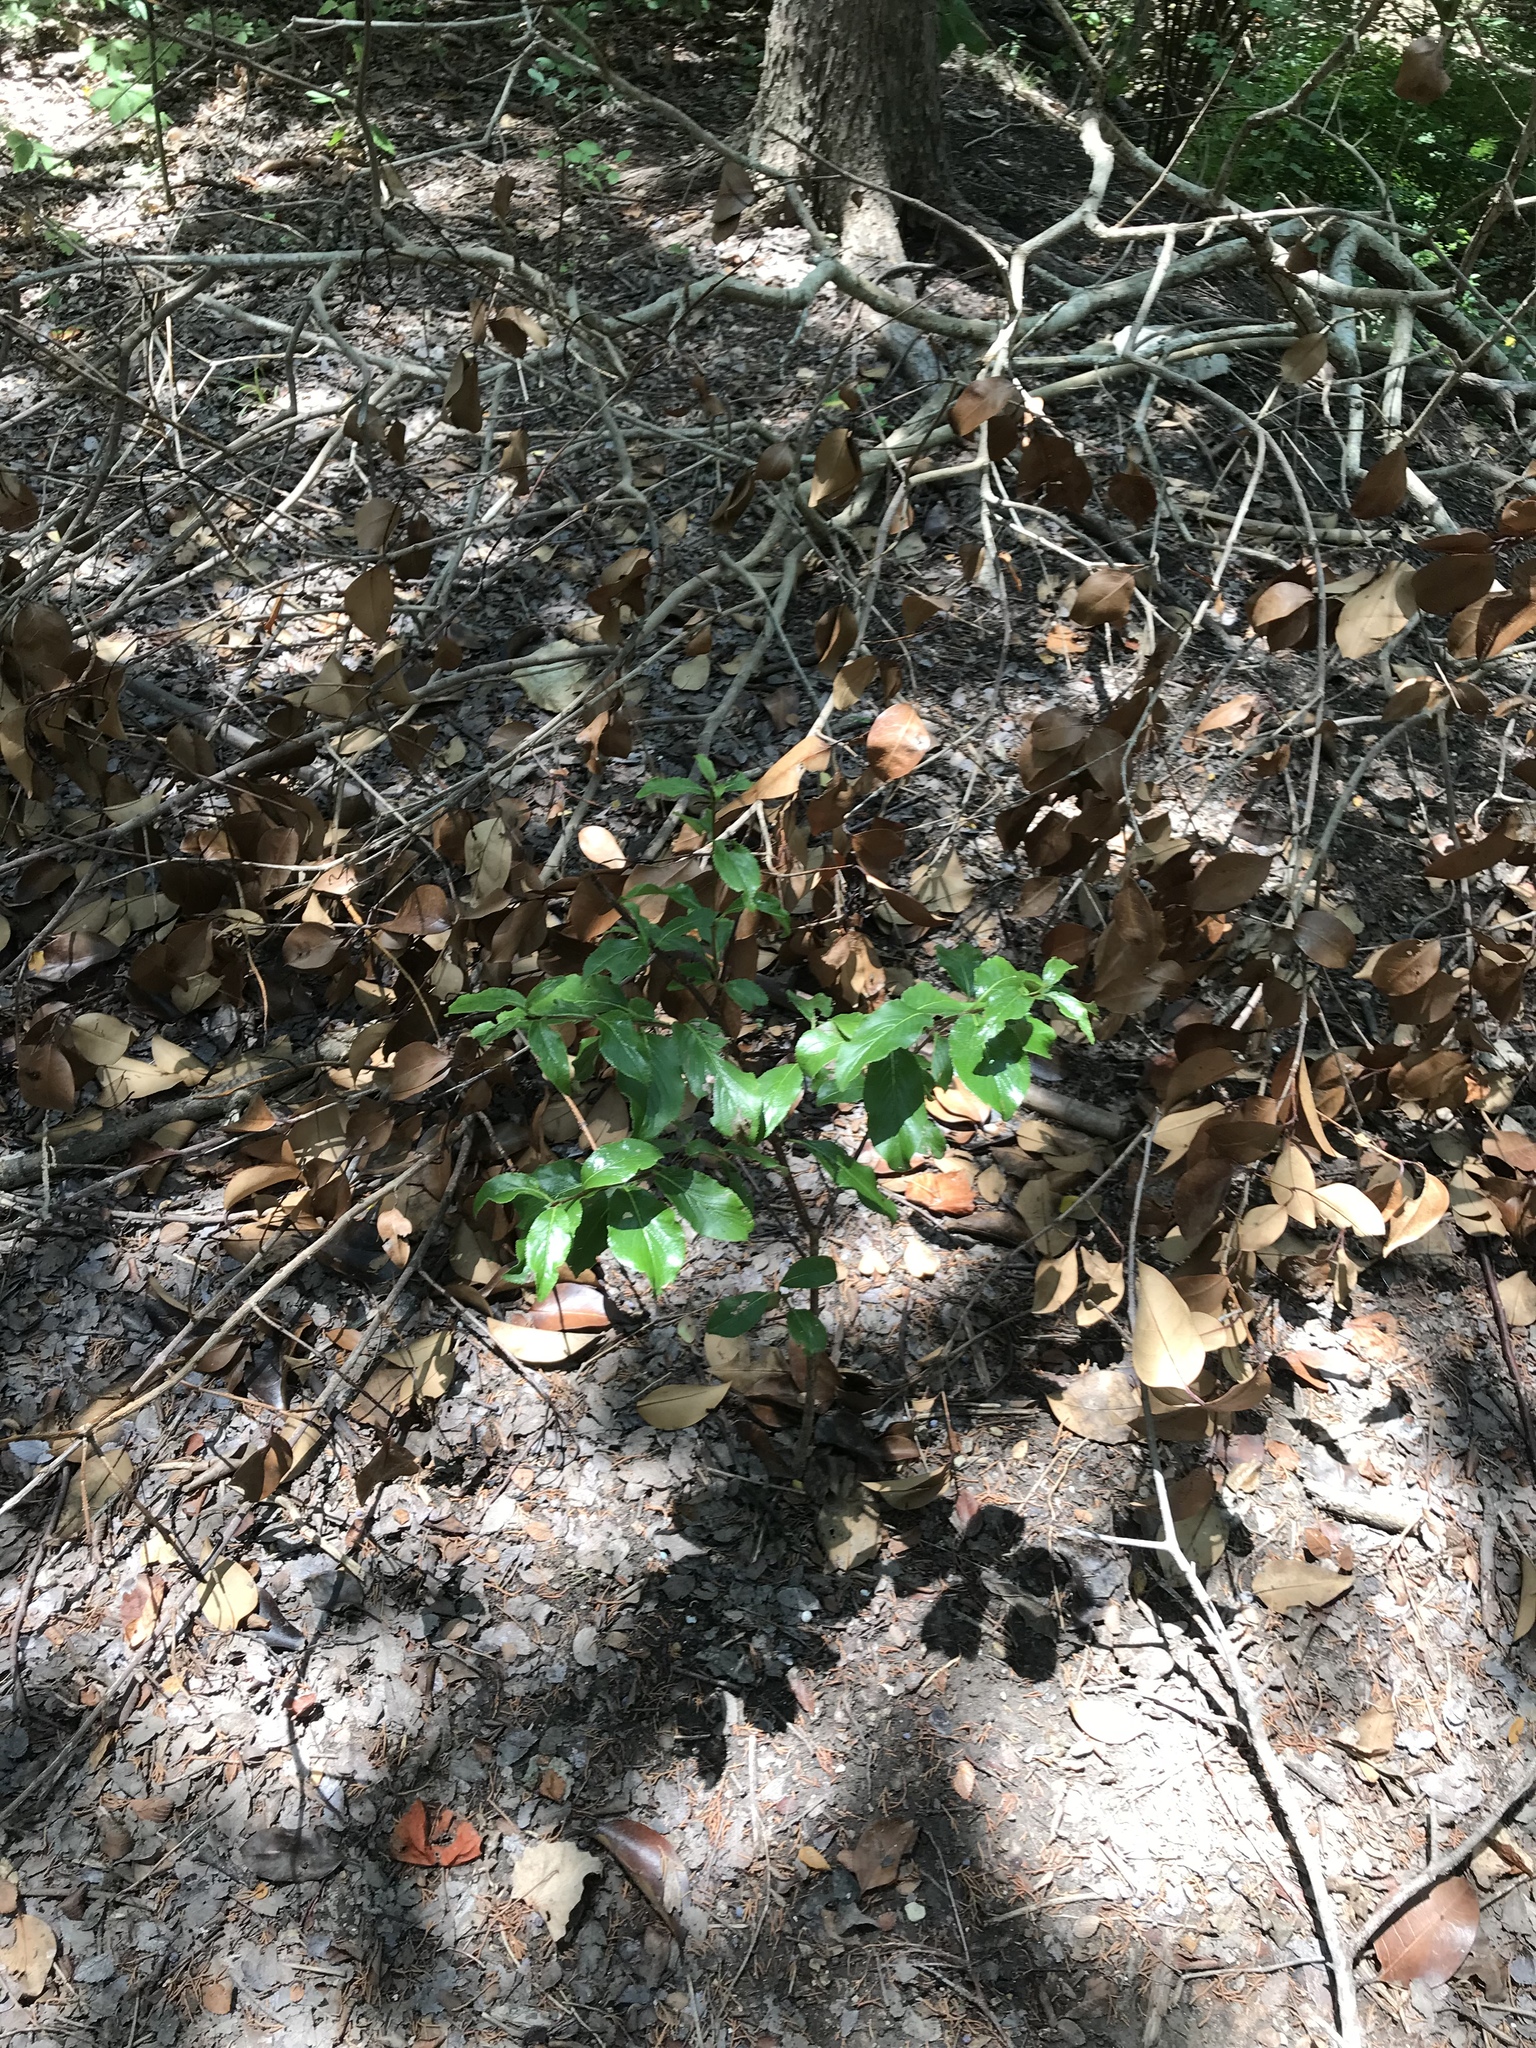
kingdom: Plantae
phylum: Tracheophyta
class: Magnoliopsida
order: Dipsacales
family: Viburnaceae
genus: Viburnum
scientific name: Viburnum rufidulum
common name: Blue haw
